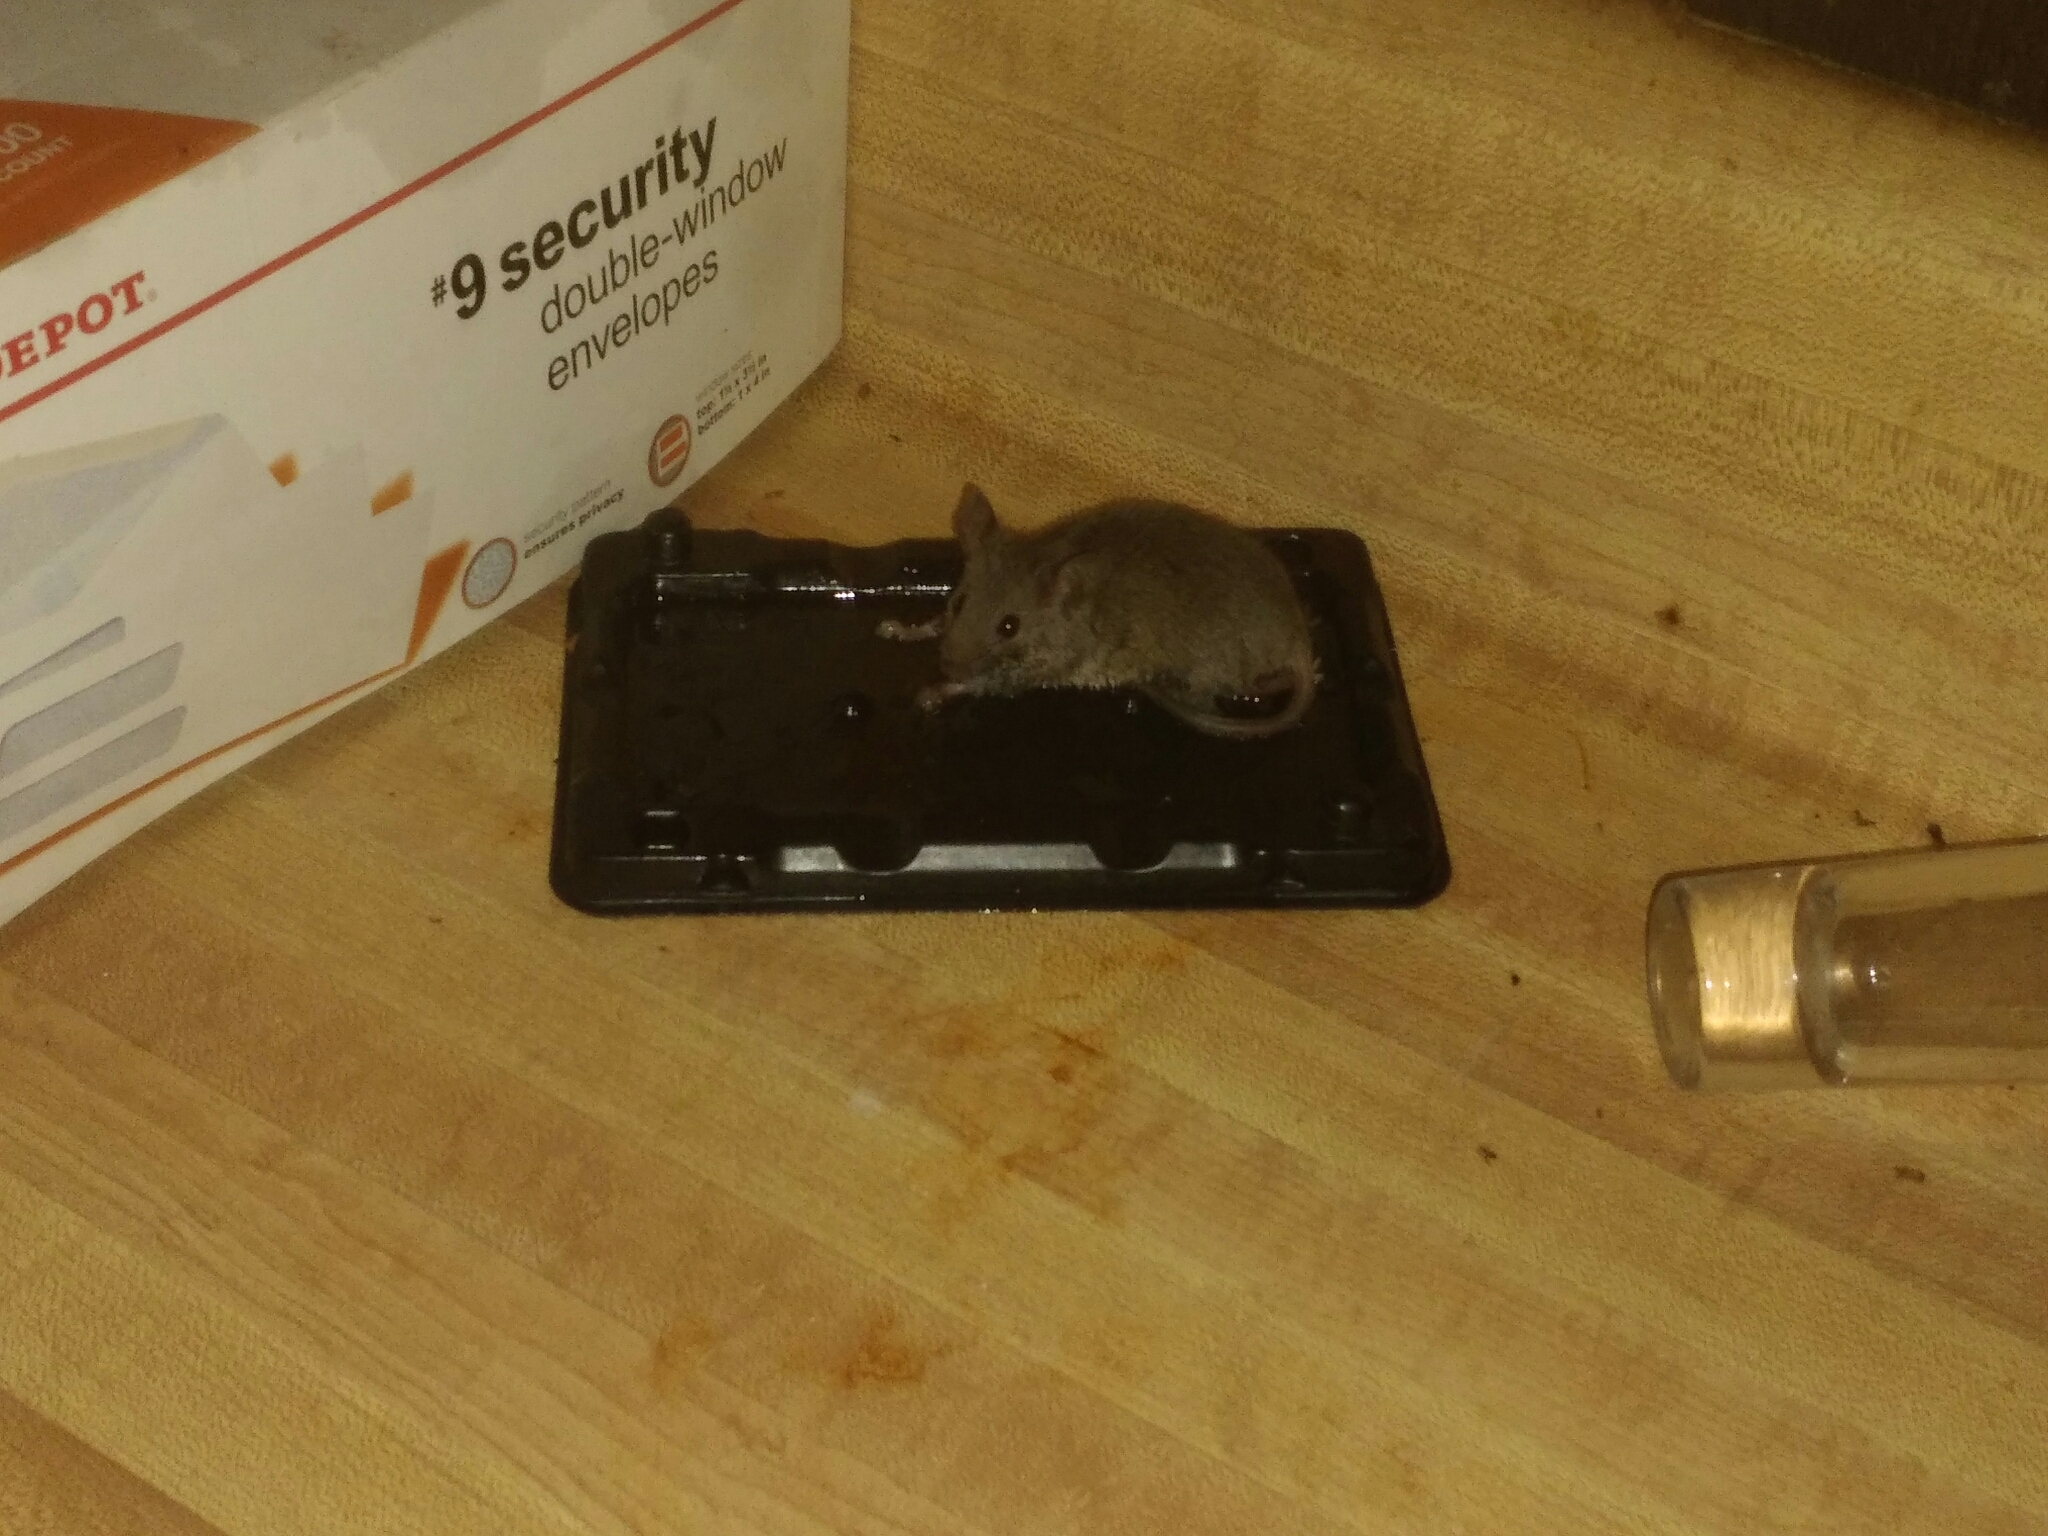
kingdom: Animalia
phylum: Chordata
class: Mammalia
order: Rodentia
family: Muridae
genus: Mus
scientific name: Mus musculus
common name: House mouse
